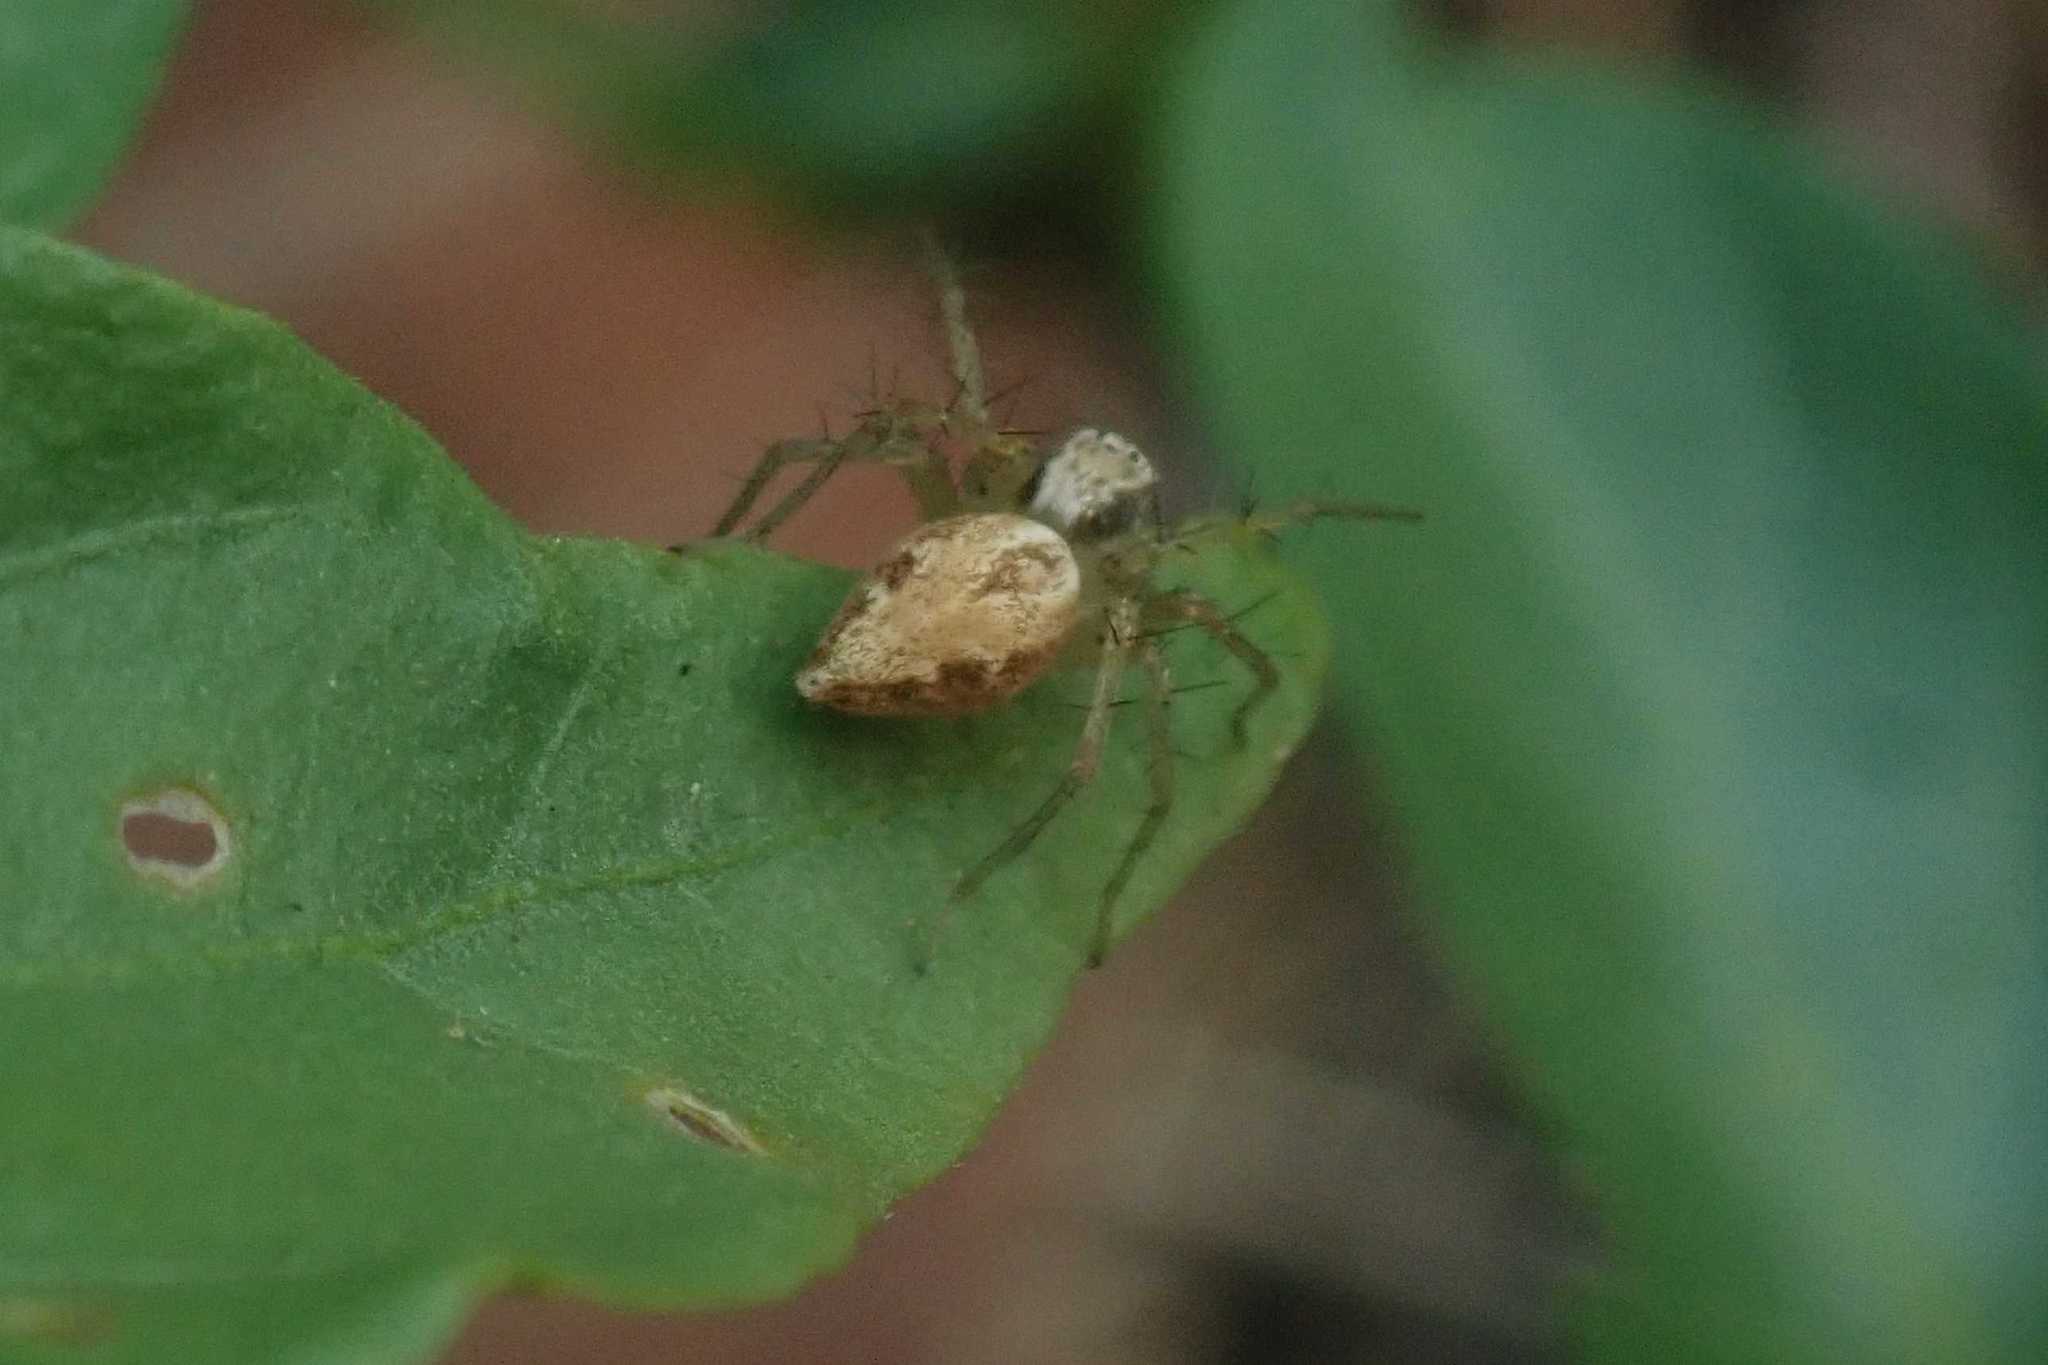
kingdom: Animalia
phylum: Arthropoda
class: Arachnida
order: Araneae
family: Oxyopidae
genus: Oxyopes
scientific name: Oxyopes hoggi
